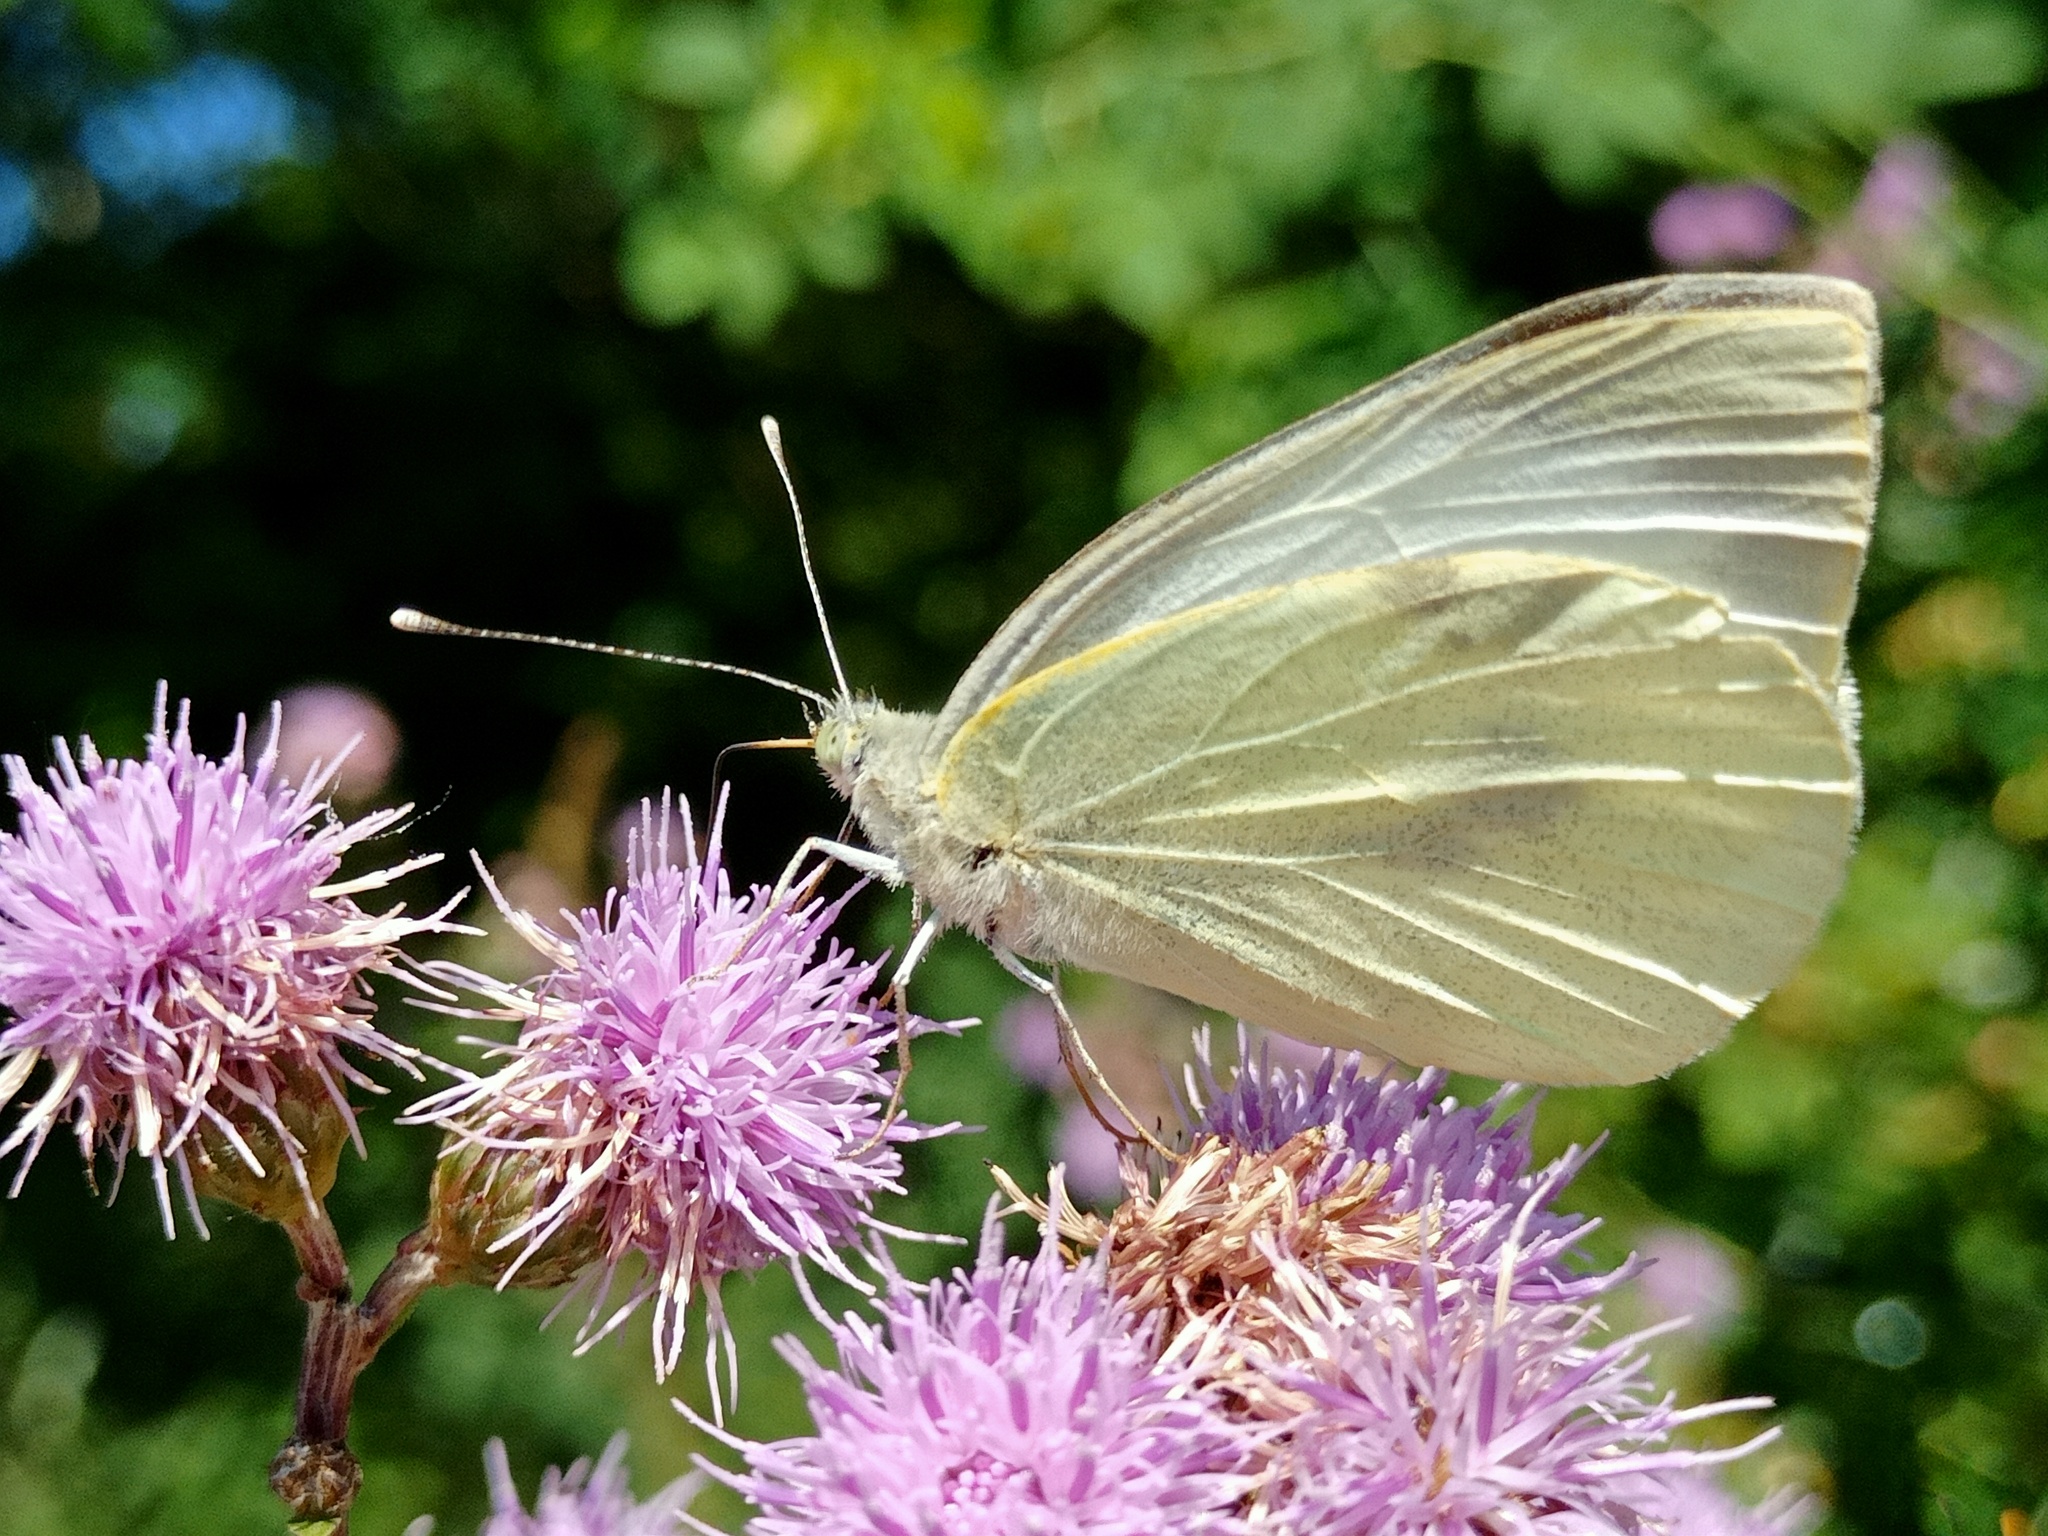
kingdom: Animalia
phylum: Arthropoda
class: Insecta
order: Lepidoptera
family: Pieridae
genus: Pieris
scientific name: Pieris brassicae
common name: Large white
